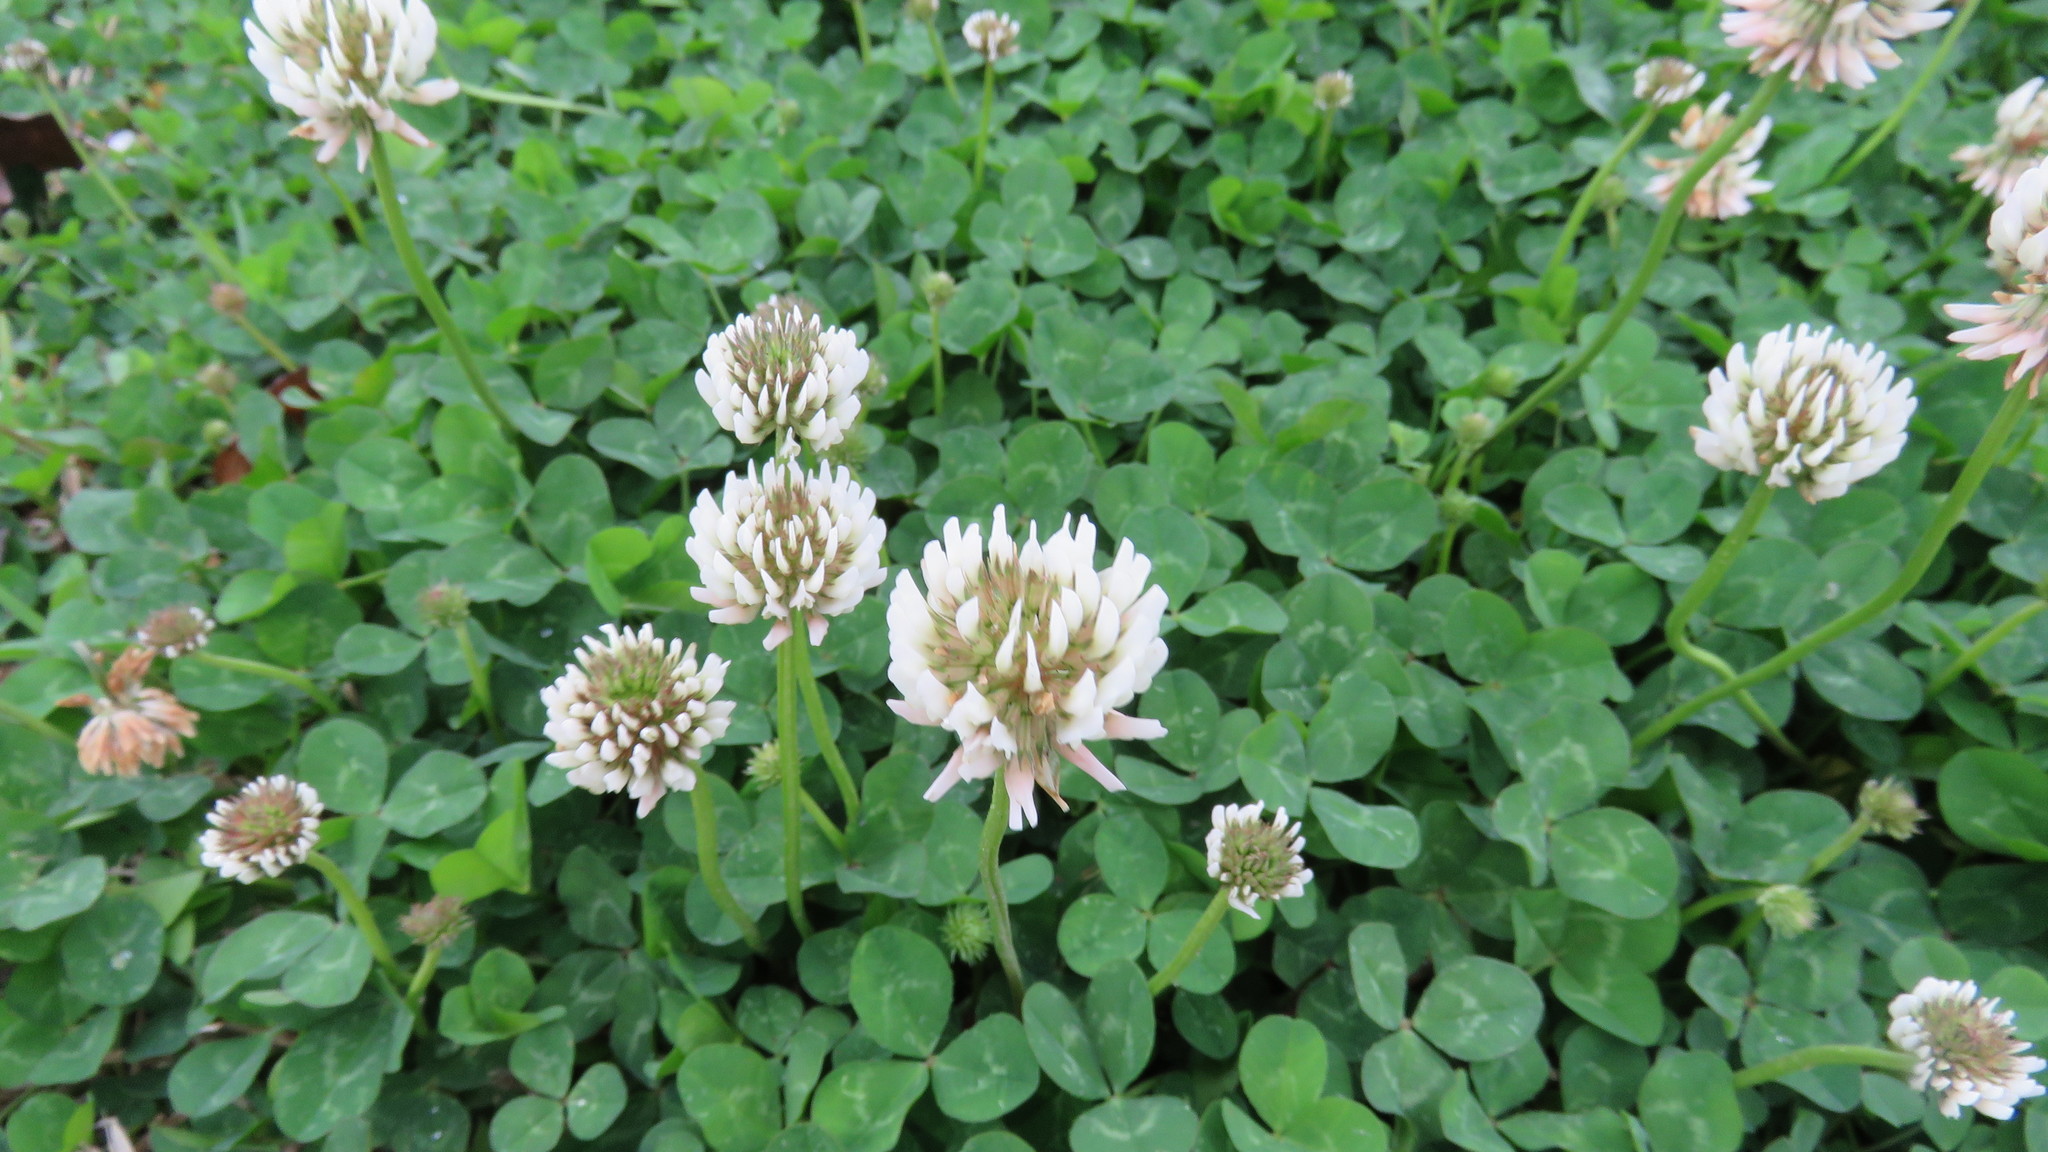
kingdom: Plantae
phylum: Tracheophyta
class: Magnoliopsida
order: Fabales
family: Fabaceae
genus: Trifolium
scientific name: Trifolium repens
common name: White clover
